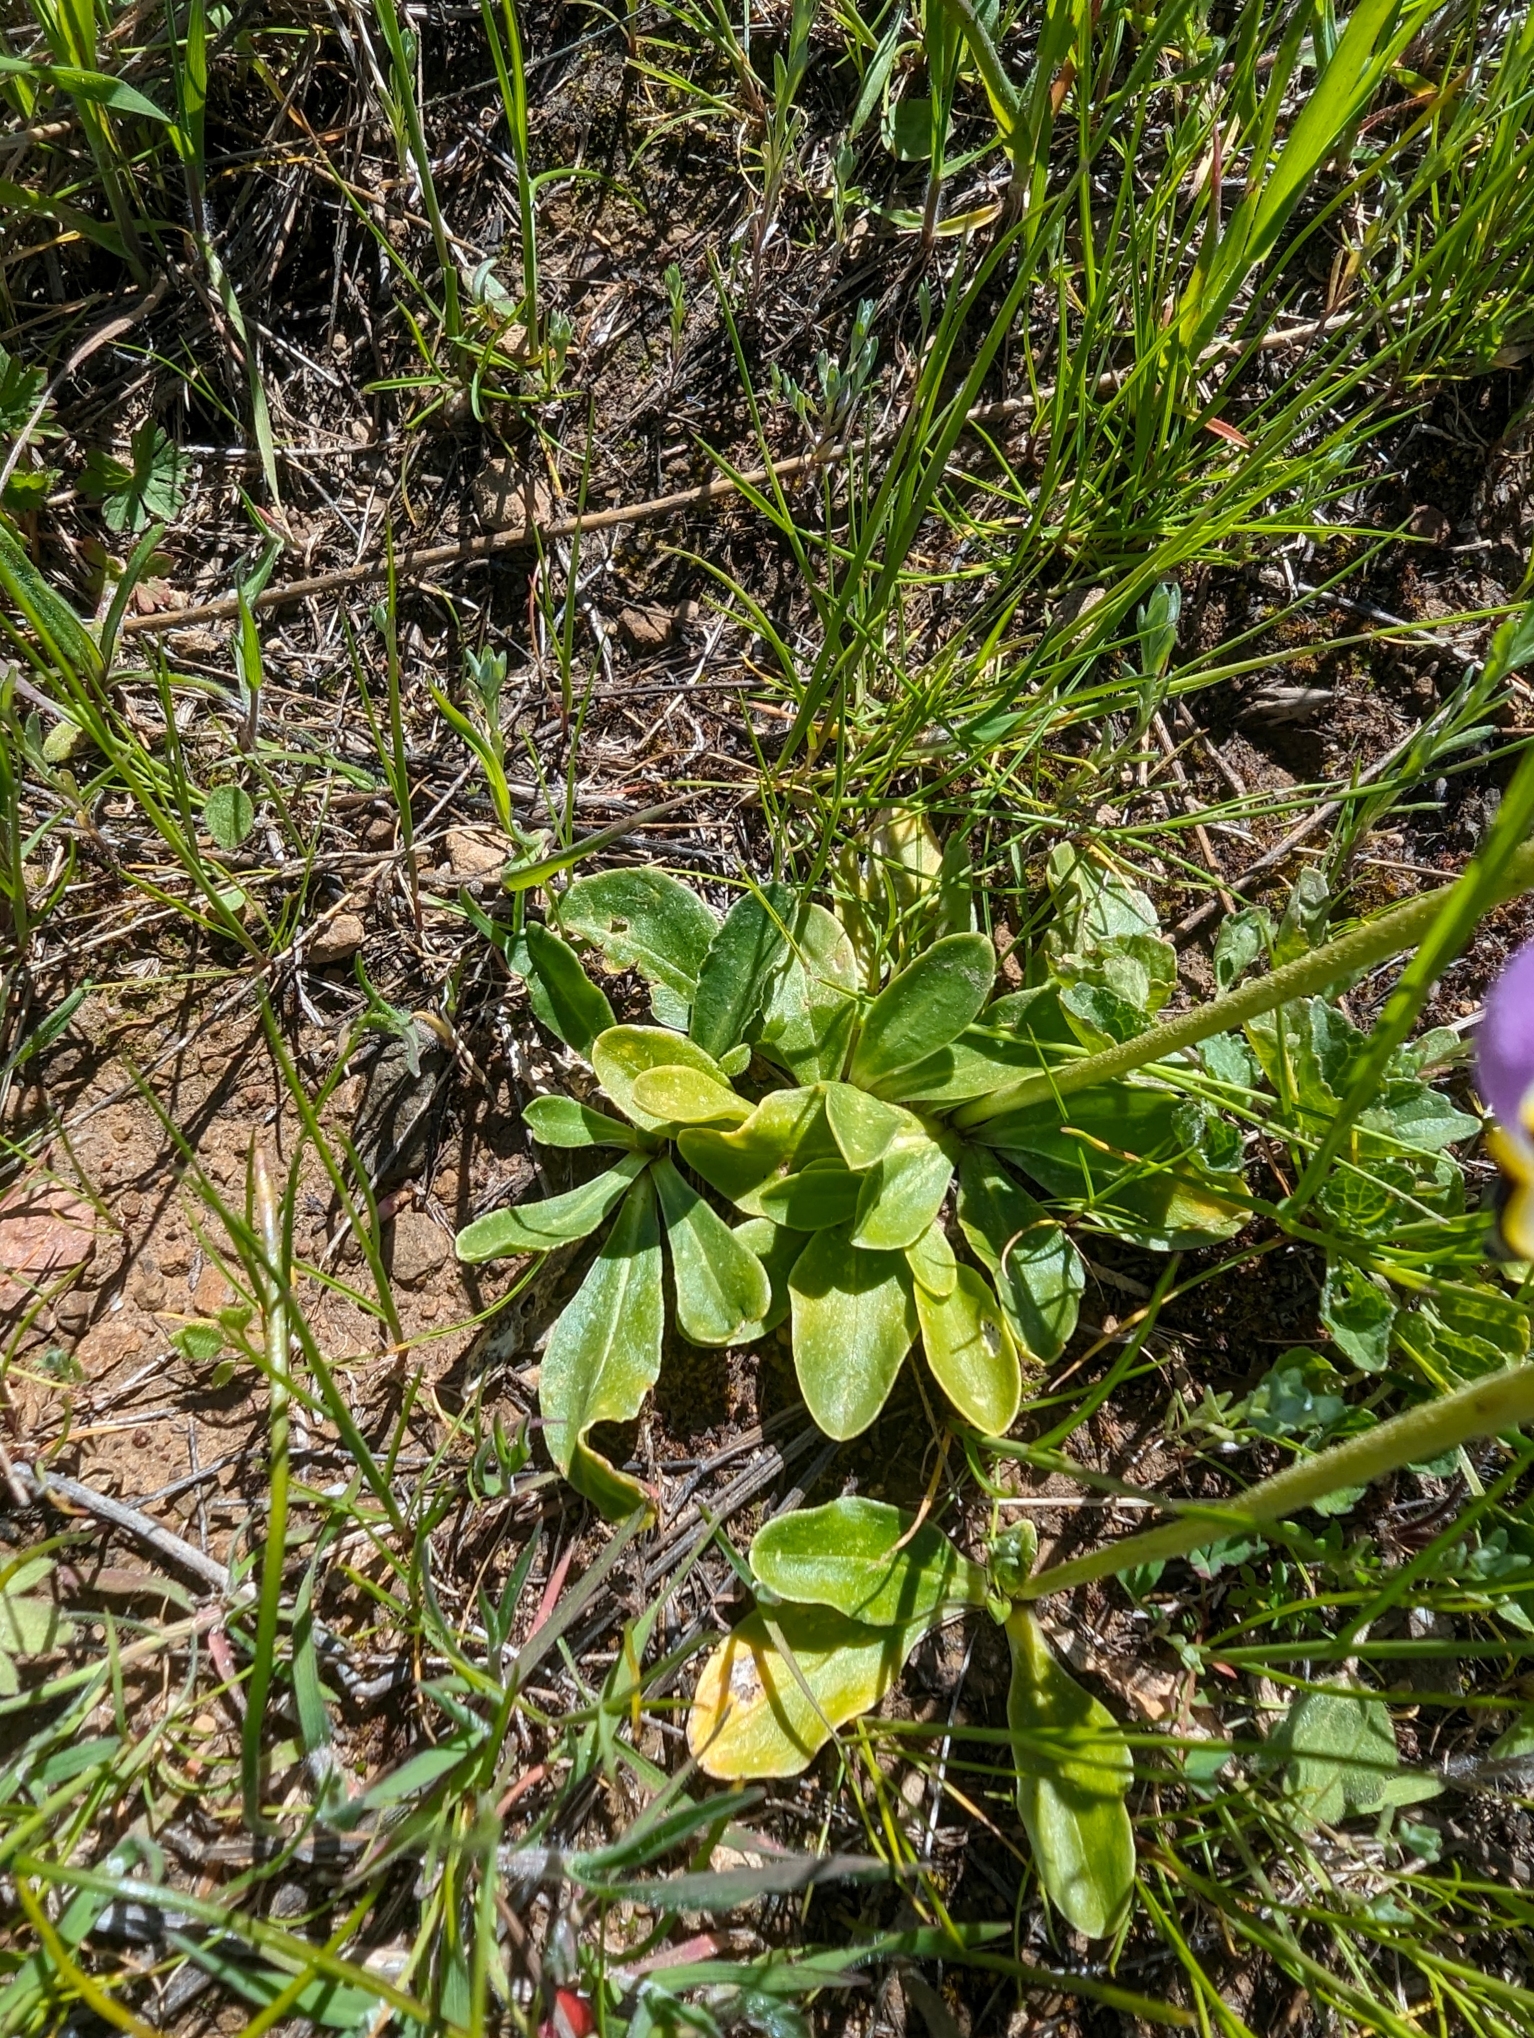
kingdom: Plantae
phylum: Tracheophyta
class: Magnoliopsida
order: Ericales
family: Primulaceae
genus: Dodecatheon
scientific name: Dodecatheon clevelandii
